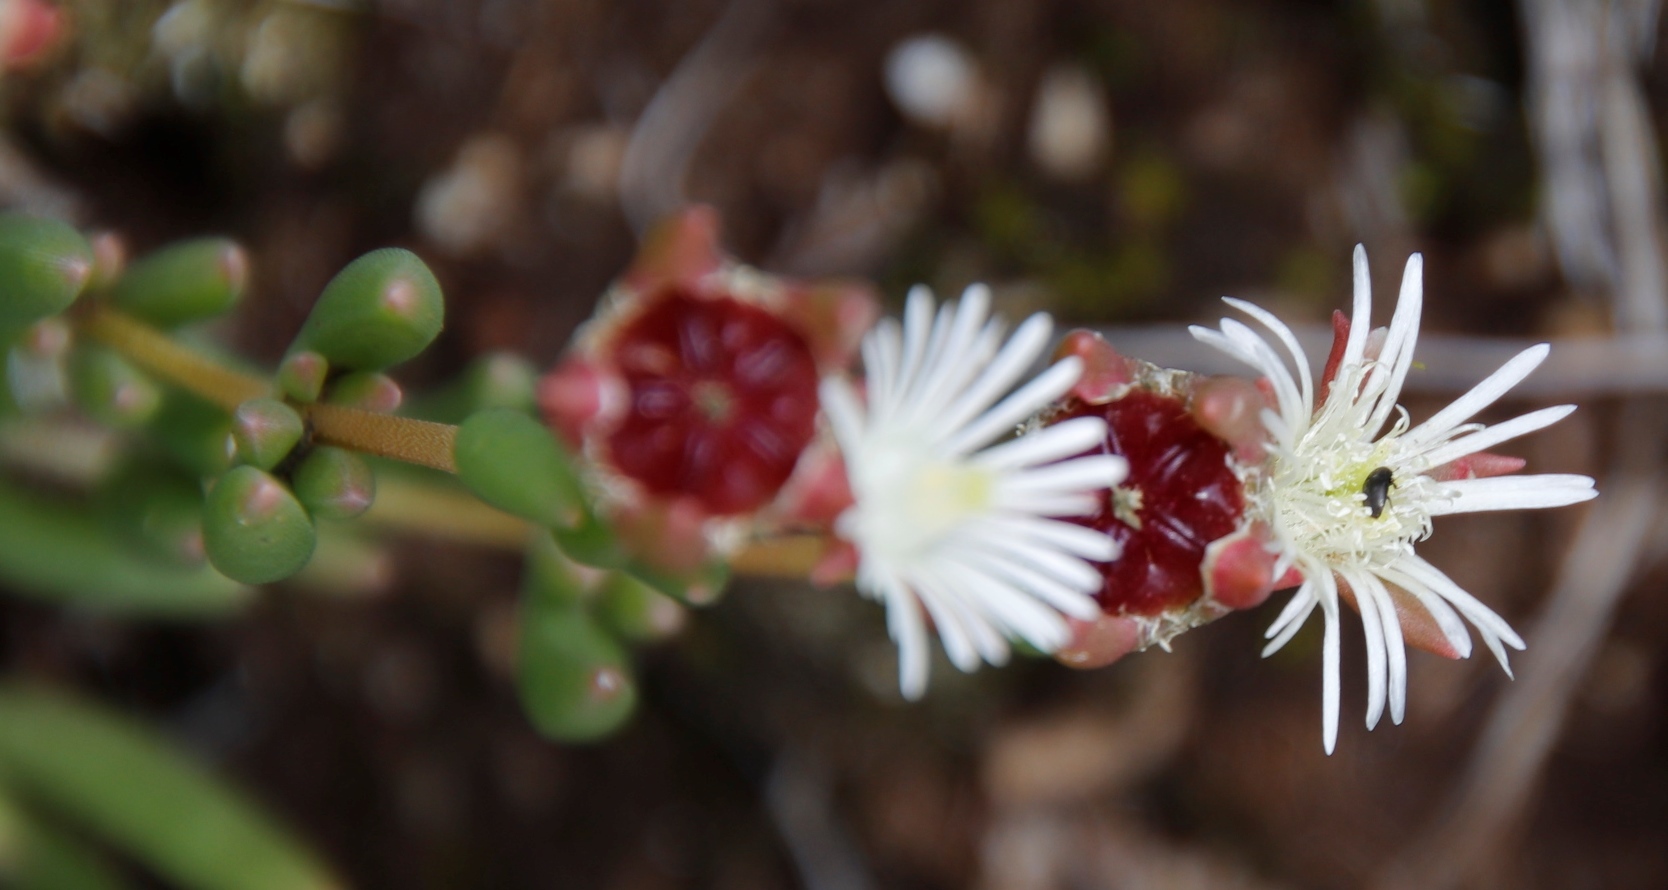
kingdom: Plantae
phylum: Tracheophyta
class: Magnoliopsida
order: Caryophyllales
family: Aizoaceae
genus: Delosperma
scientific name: Delosperma brevisepalum
